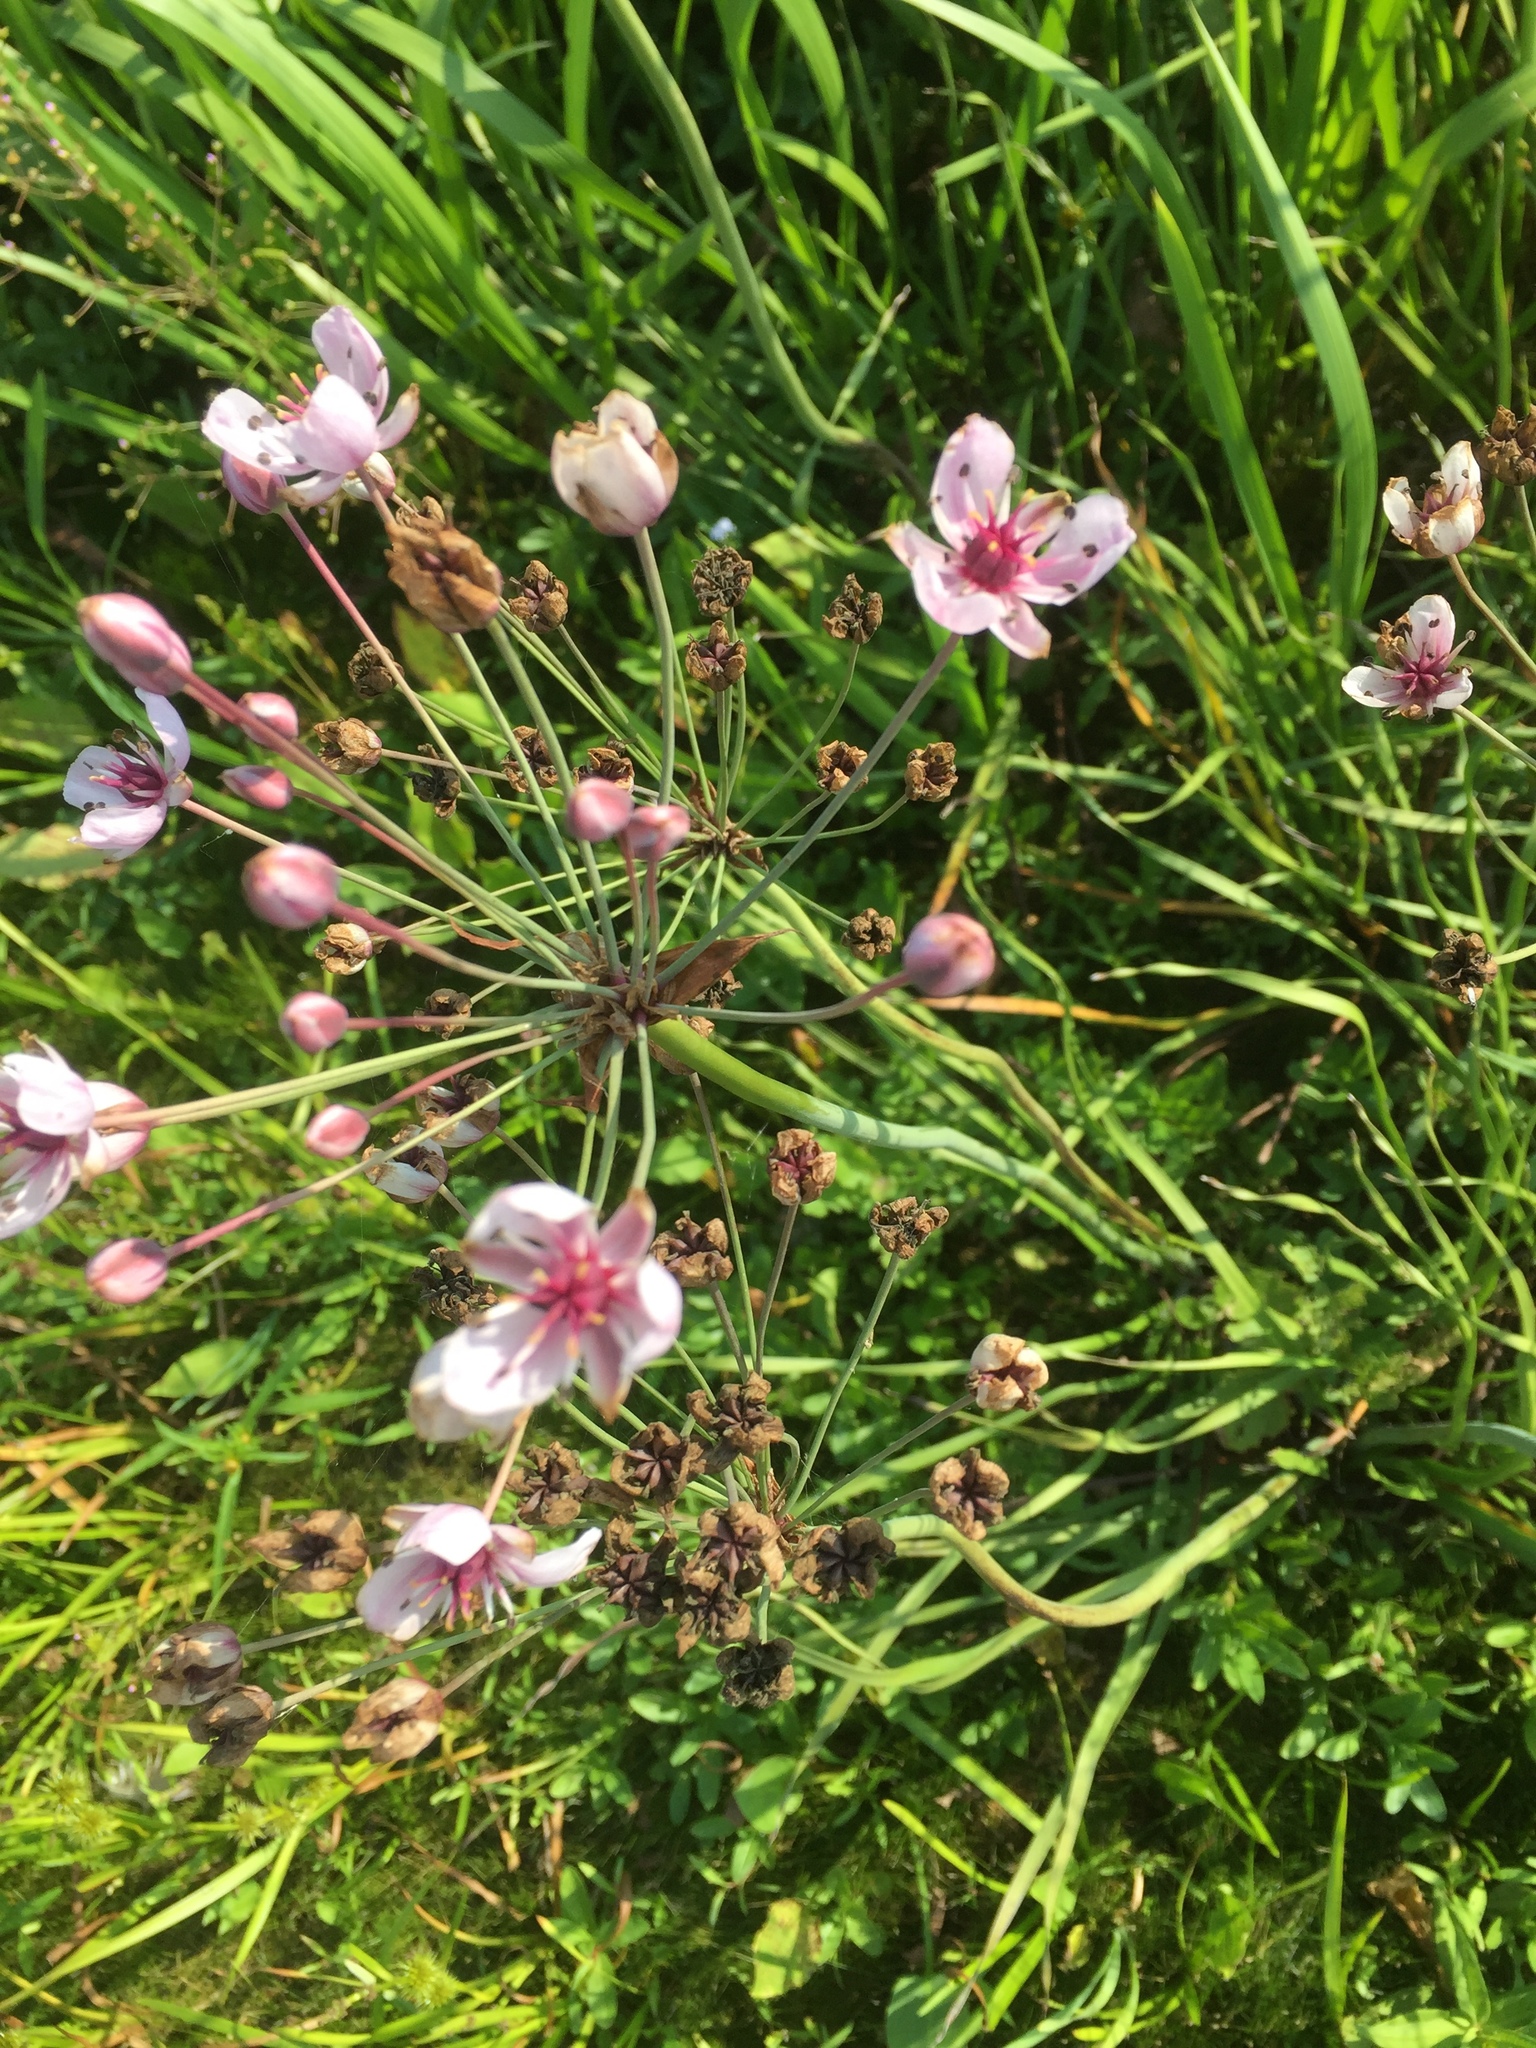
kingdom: Plantae
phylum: Tracheophyta
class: Liliopsida
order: Alismatales
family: Butomaceae
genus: Butomus
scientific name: Butomus umbellatus
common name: Flowering-rush
